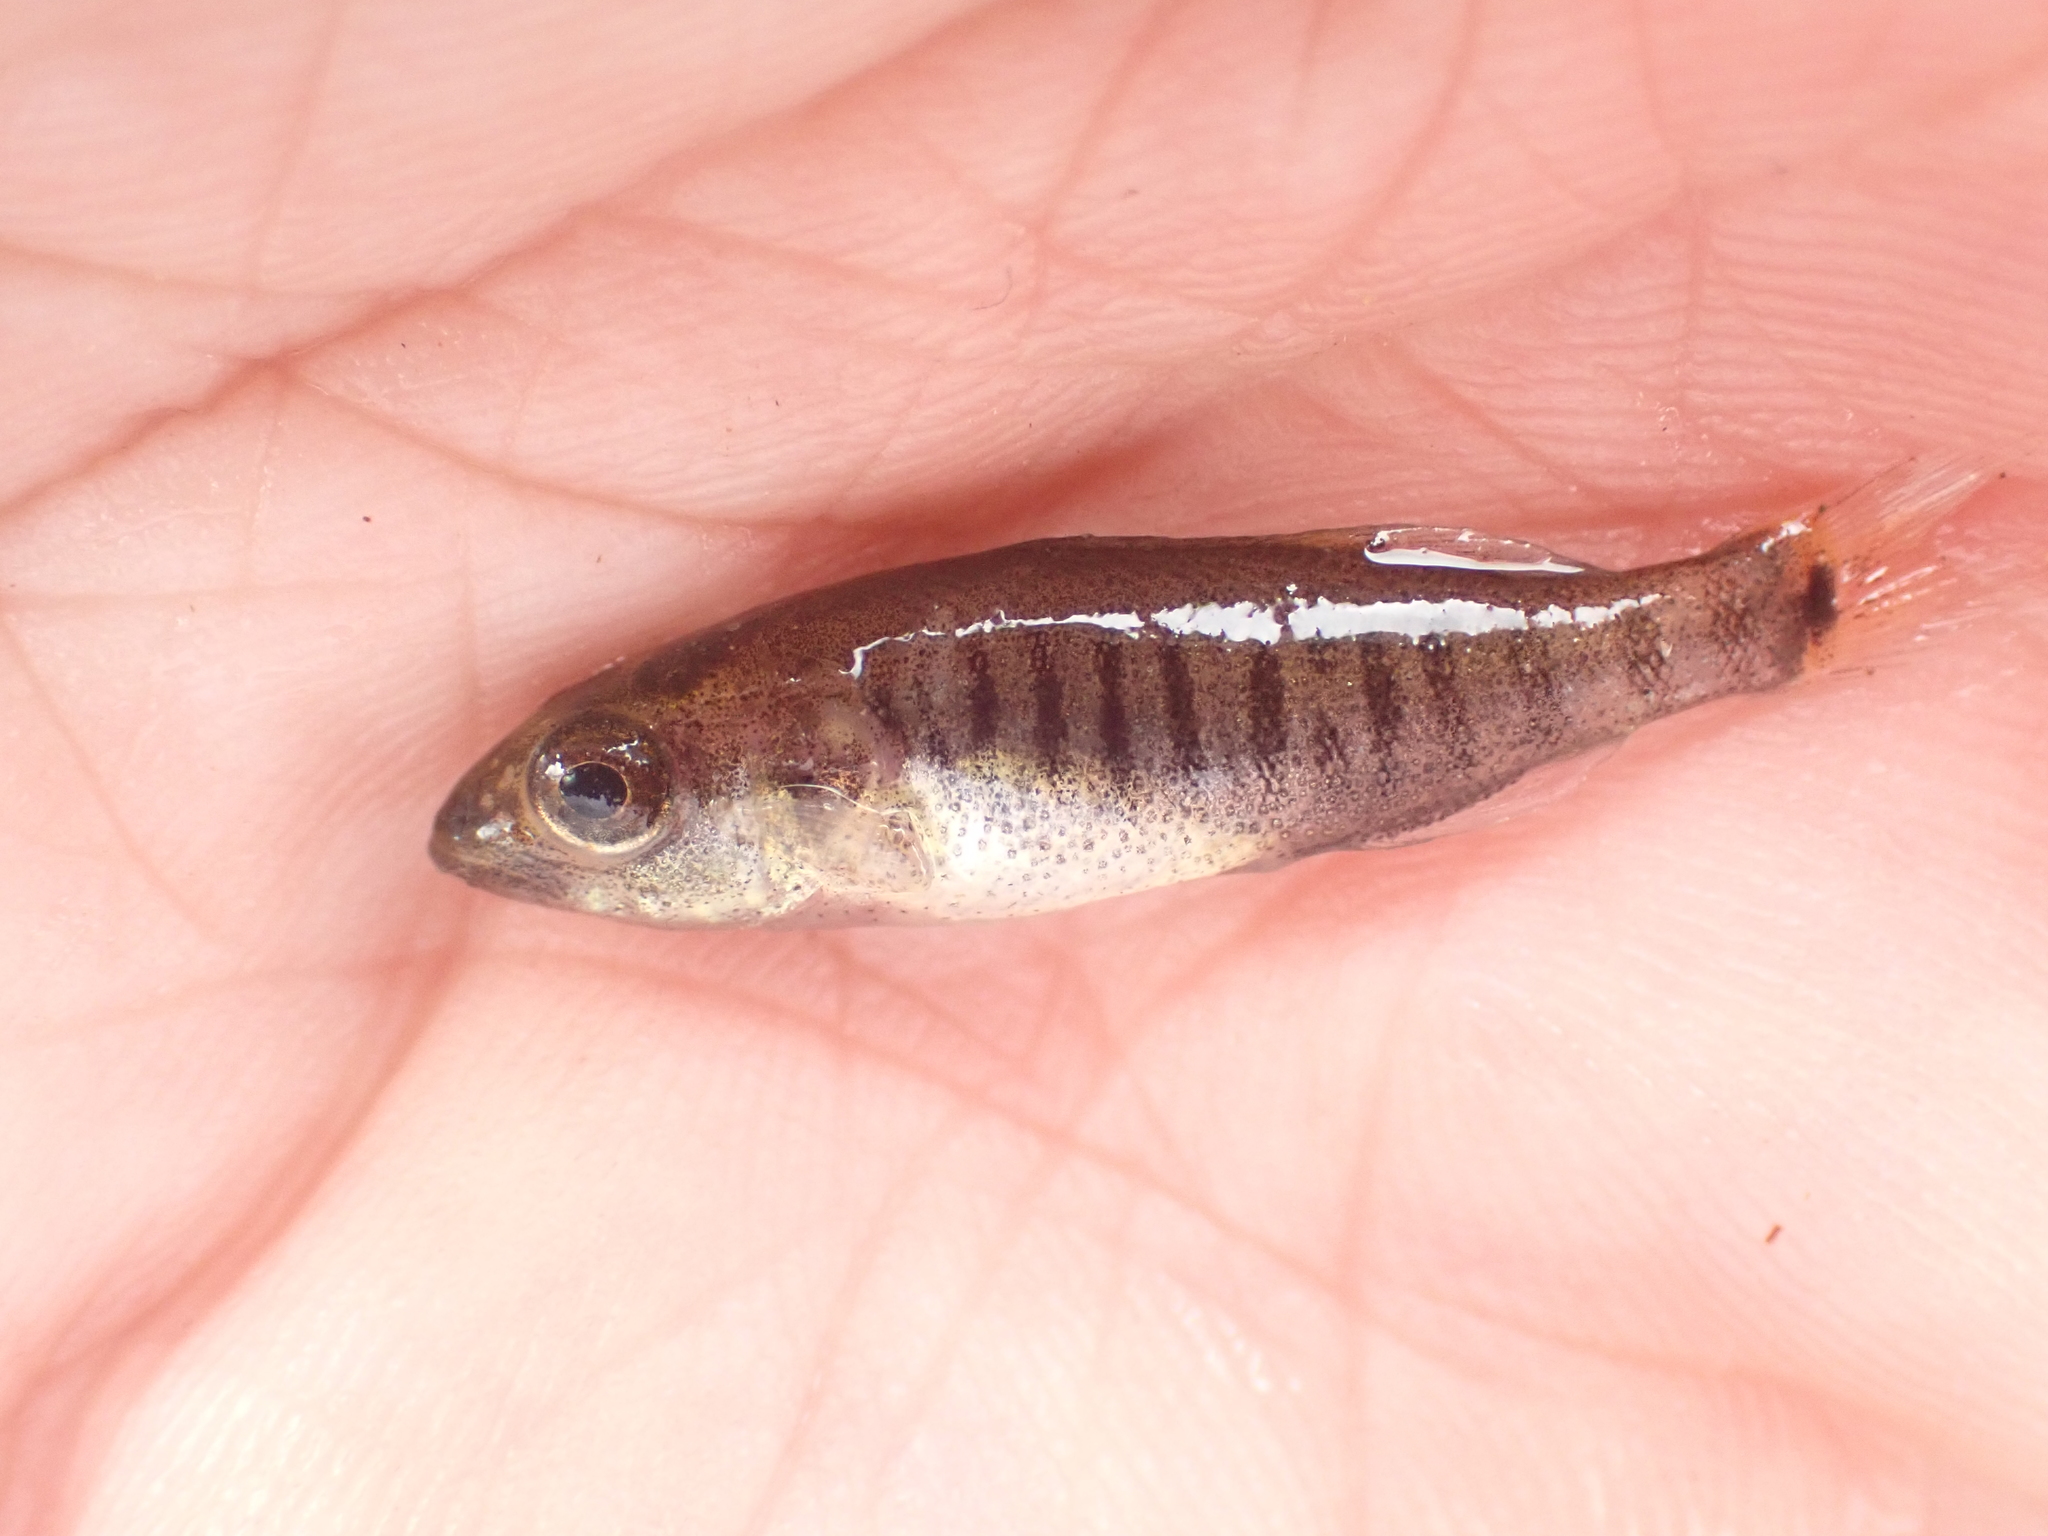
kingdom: Animalia
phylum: Chordata
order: Perciformes
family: Centrarchidae
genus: Micropterus
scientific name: Micropterus dolomieu
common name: Smallmouth bass
